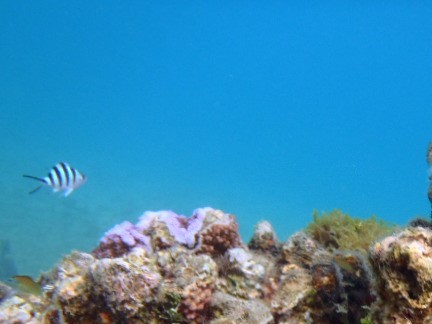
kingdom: Animalia
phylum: Chordata
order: Perciformes
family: Pomacentridae
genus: Abudefduf
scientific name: Abudefduf sexfasciatus
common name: Scissortail sergeant
